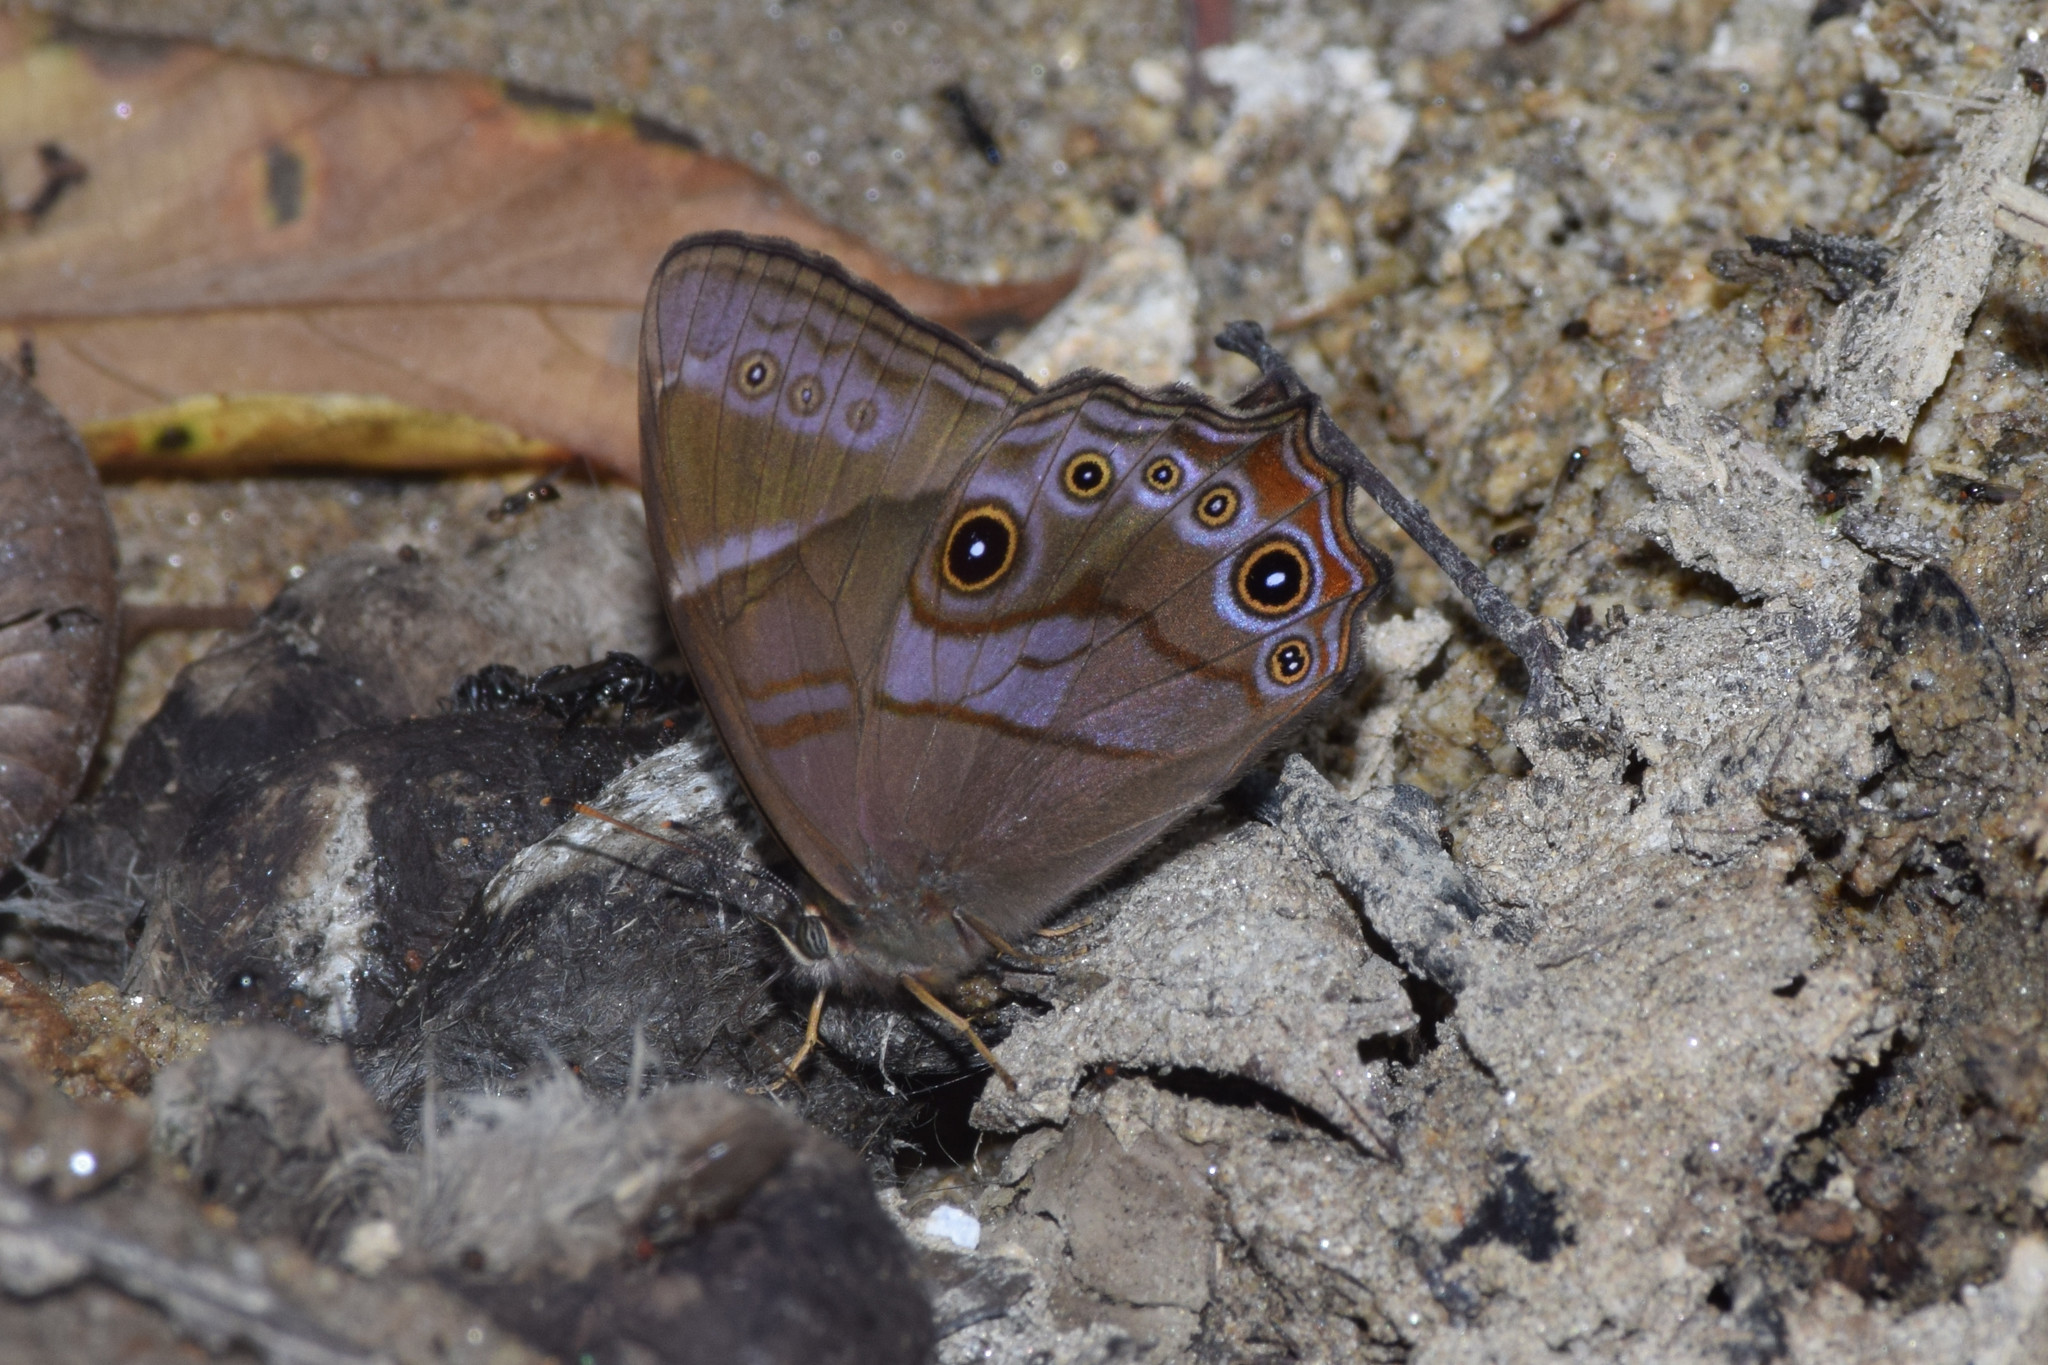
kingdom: Animalia
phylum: Arthropoda
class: Insecta
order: Lepidoptera
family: Nymphalidae
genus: Lethe
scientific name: Lethe
